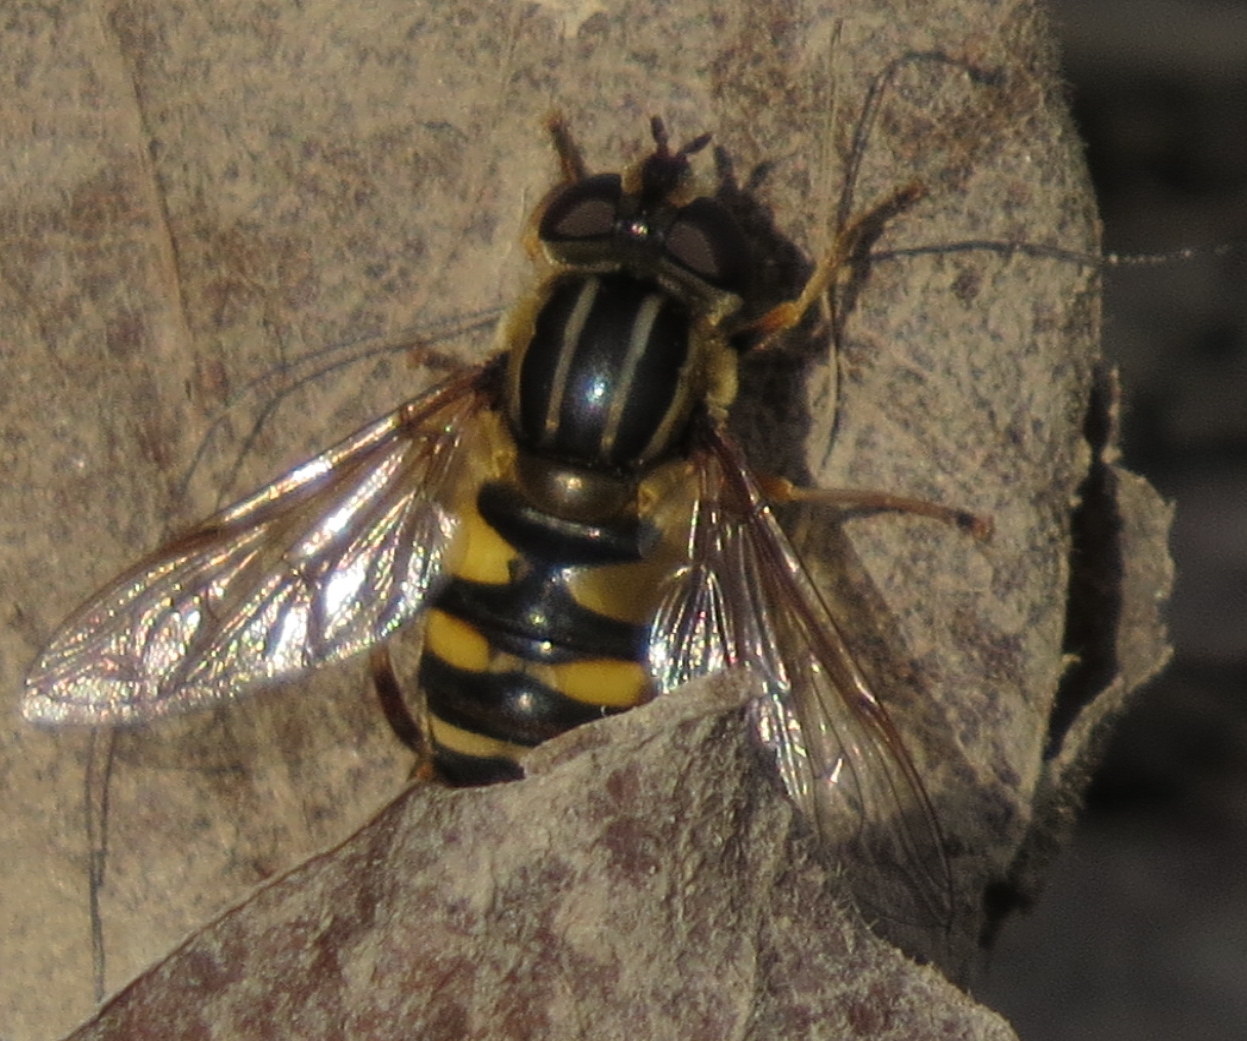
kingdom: Animalia
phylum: Arthropoda
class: Insecta
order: Diptera
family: Syrphidae
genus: Helophilus
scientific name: Helophilus fasciatus
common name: Narrow-headed marsh fly
